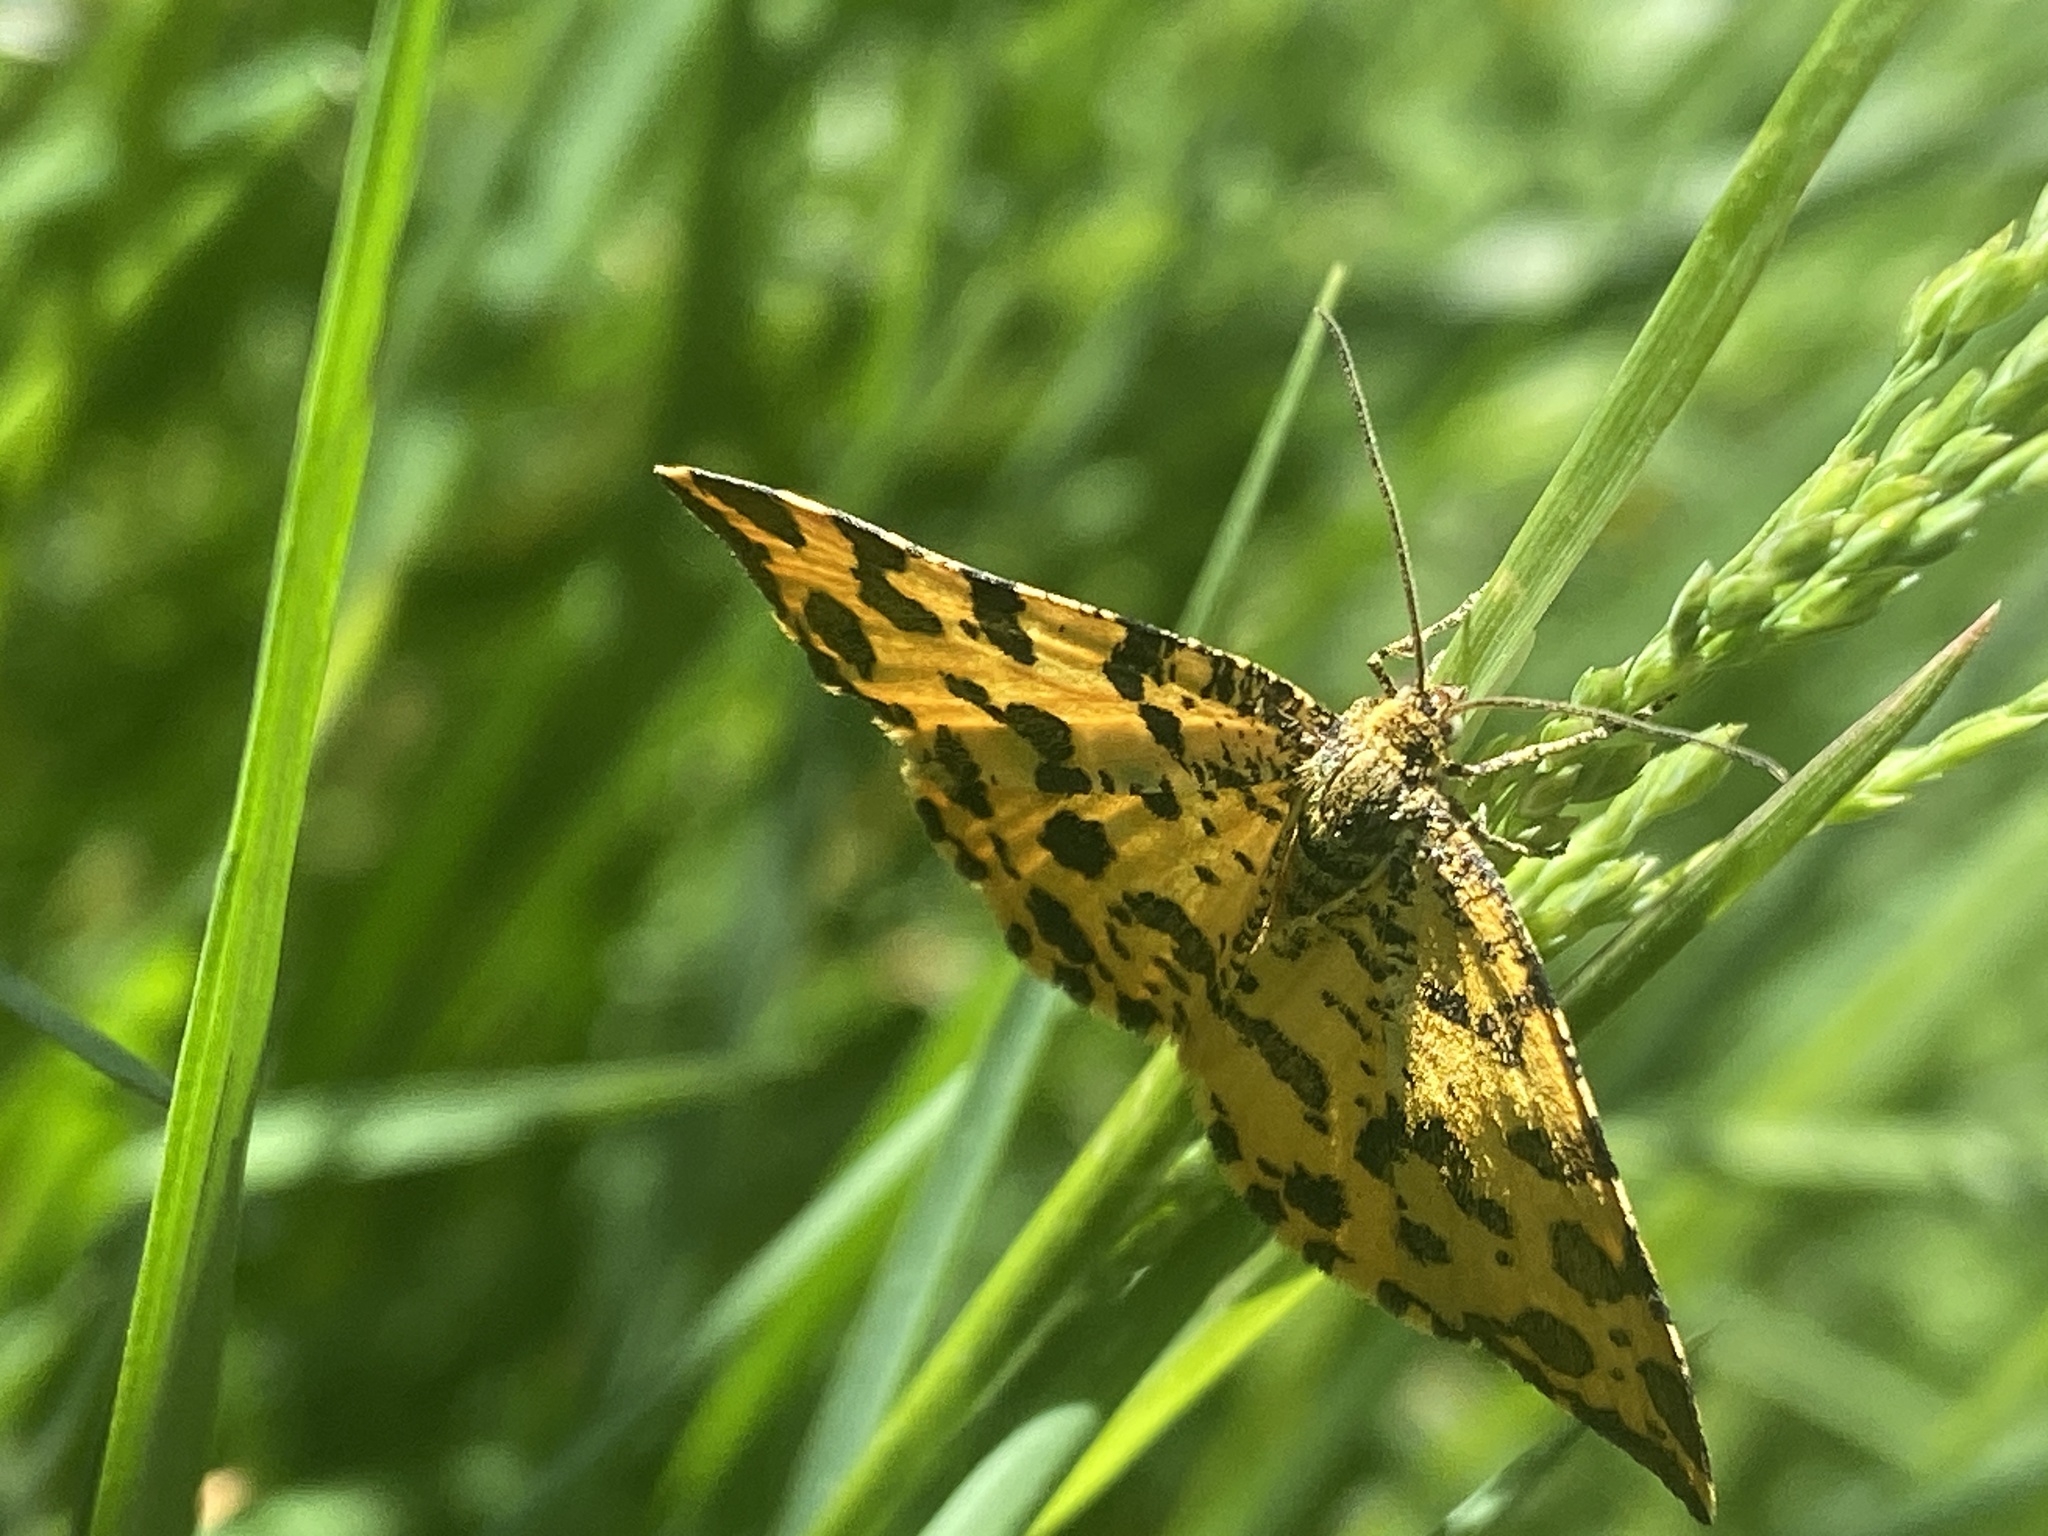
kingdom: Animalia
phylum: Arthropoda
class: Insecta
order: Lepidoptera
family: Geometridae
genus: Pseudopanthera
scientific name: Pseudopanthera macularia
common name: Speckled yellow
